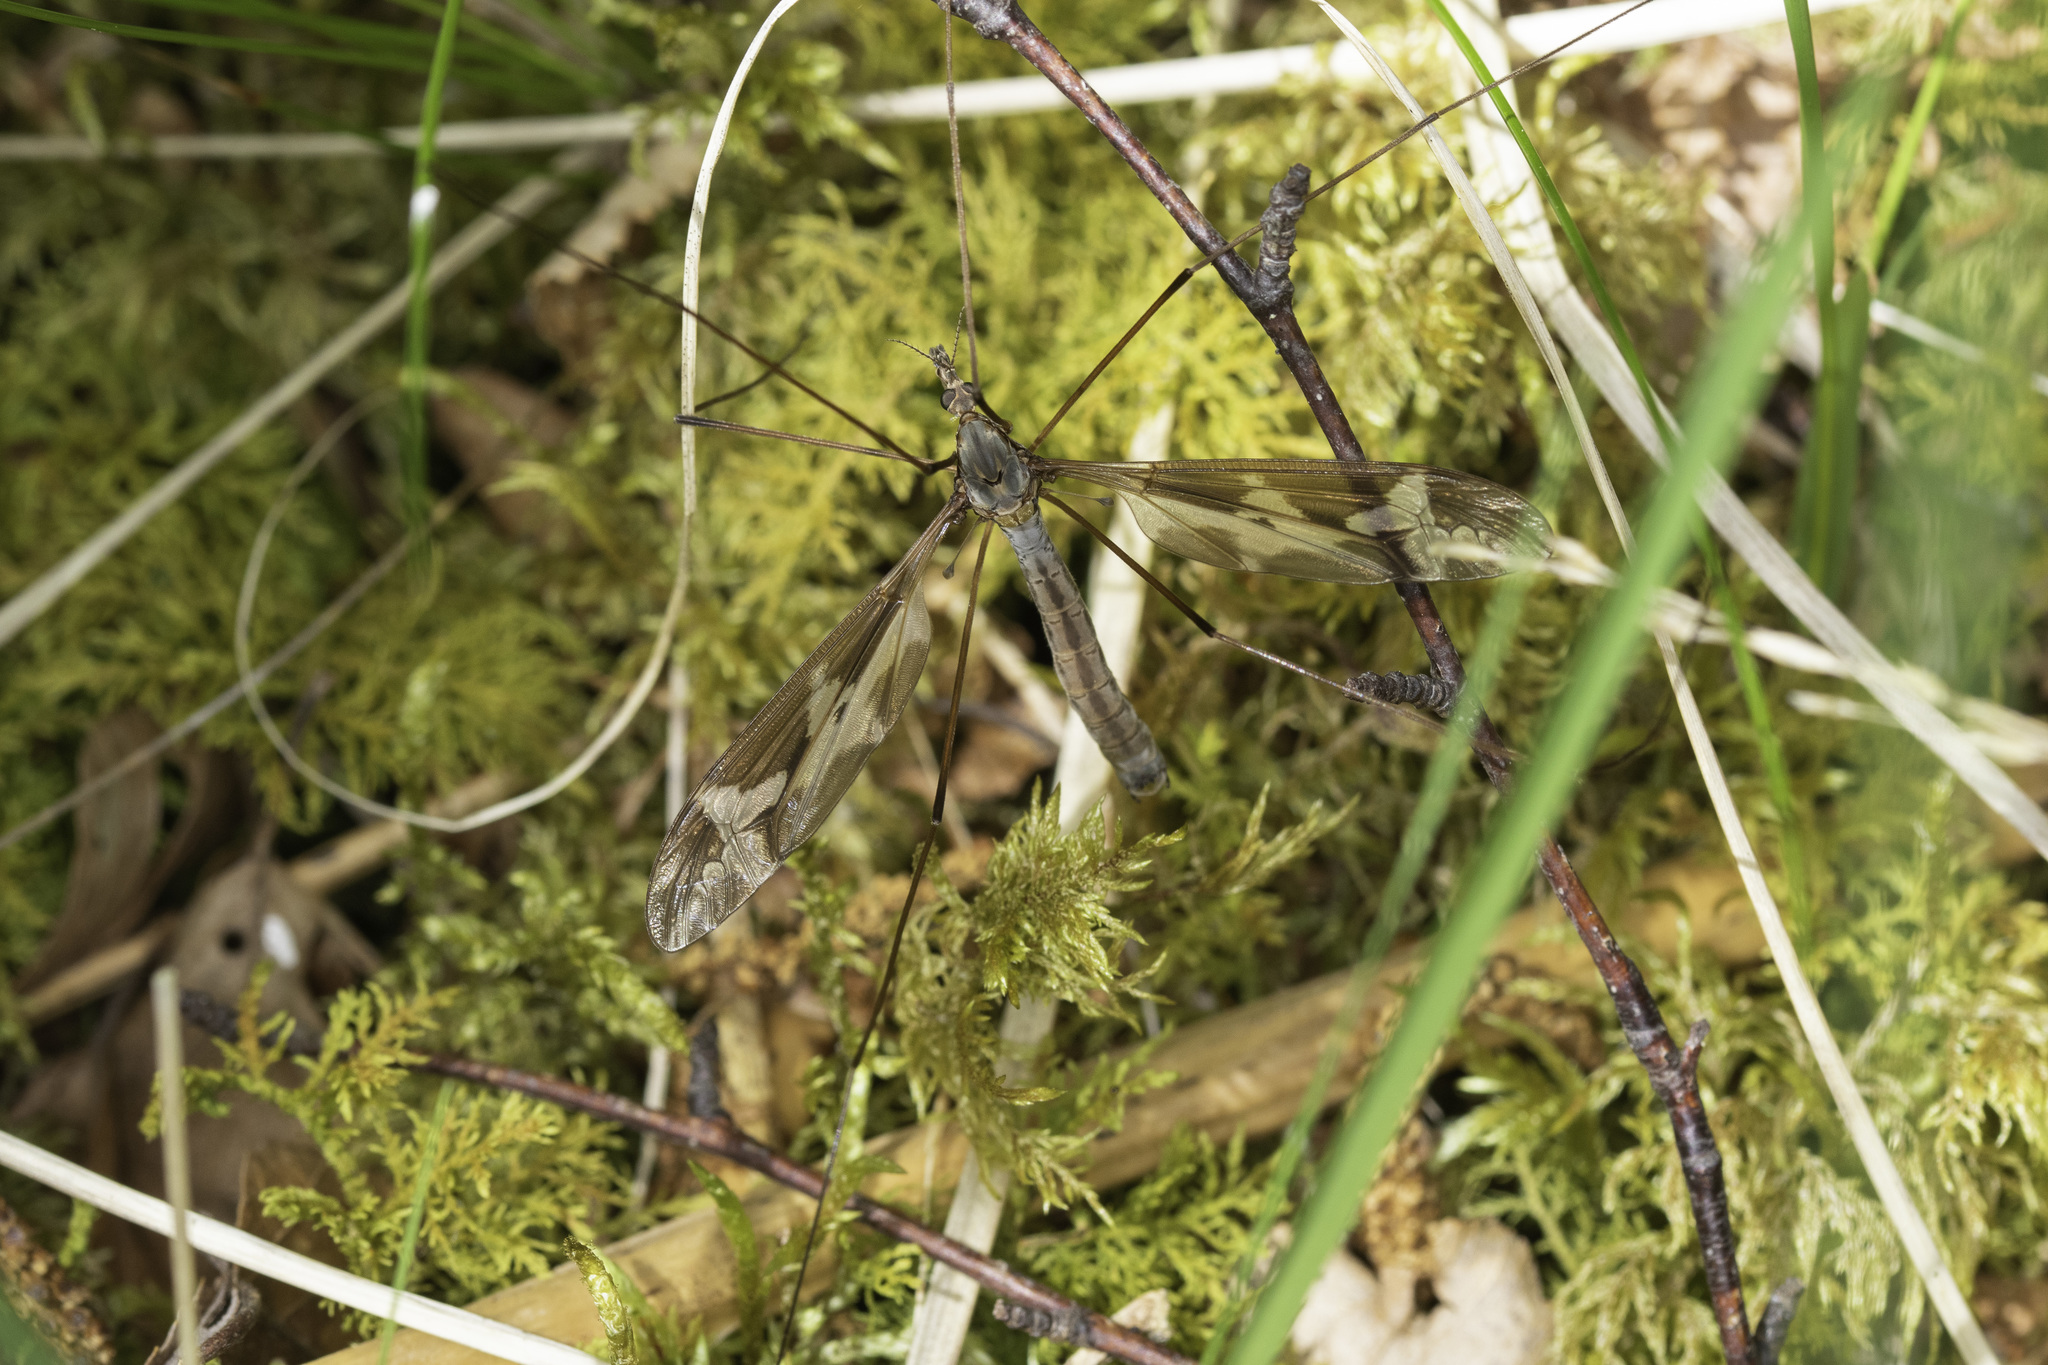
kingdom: Animalia
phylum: Arthropoda
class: Insecta
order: Diptera
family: Tipulidae
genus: Tipula
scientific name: Tipula maxima
